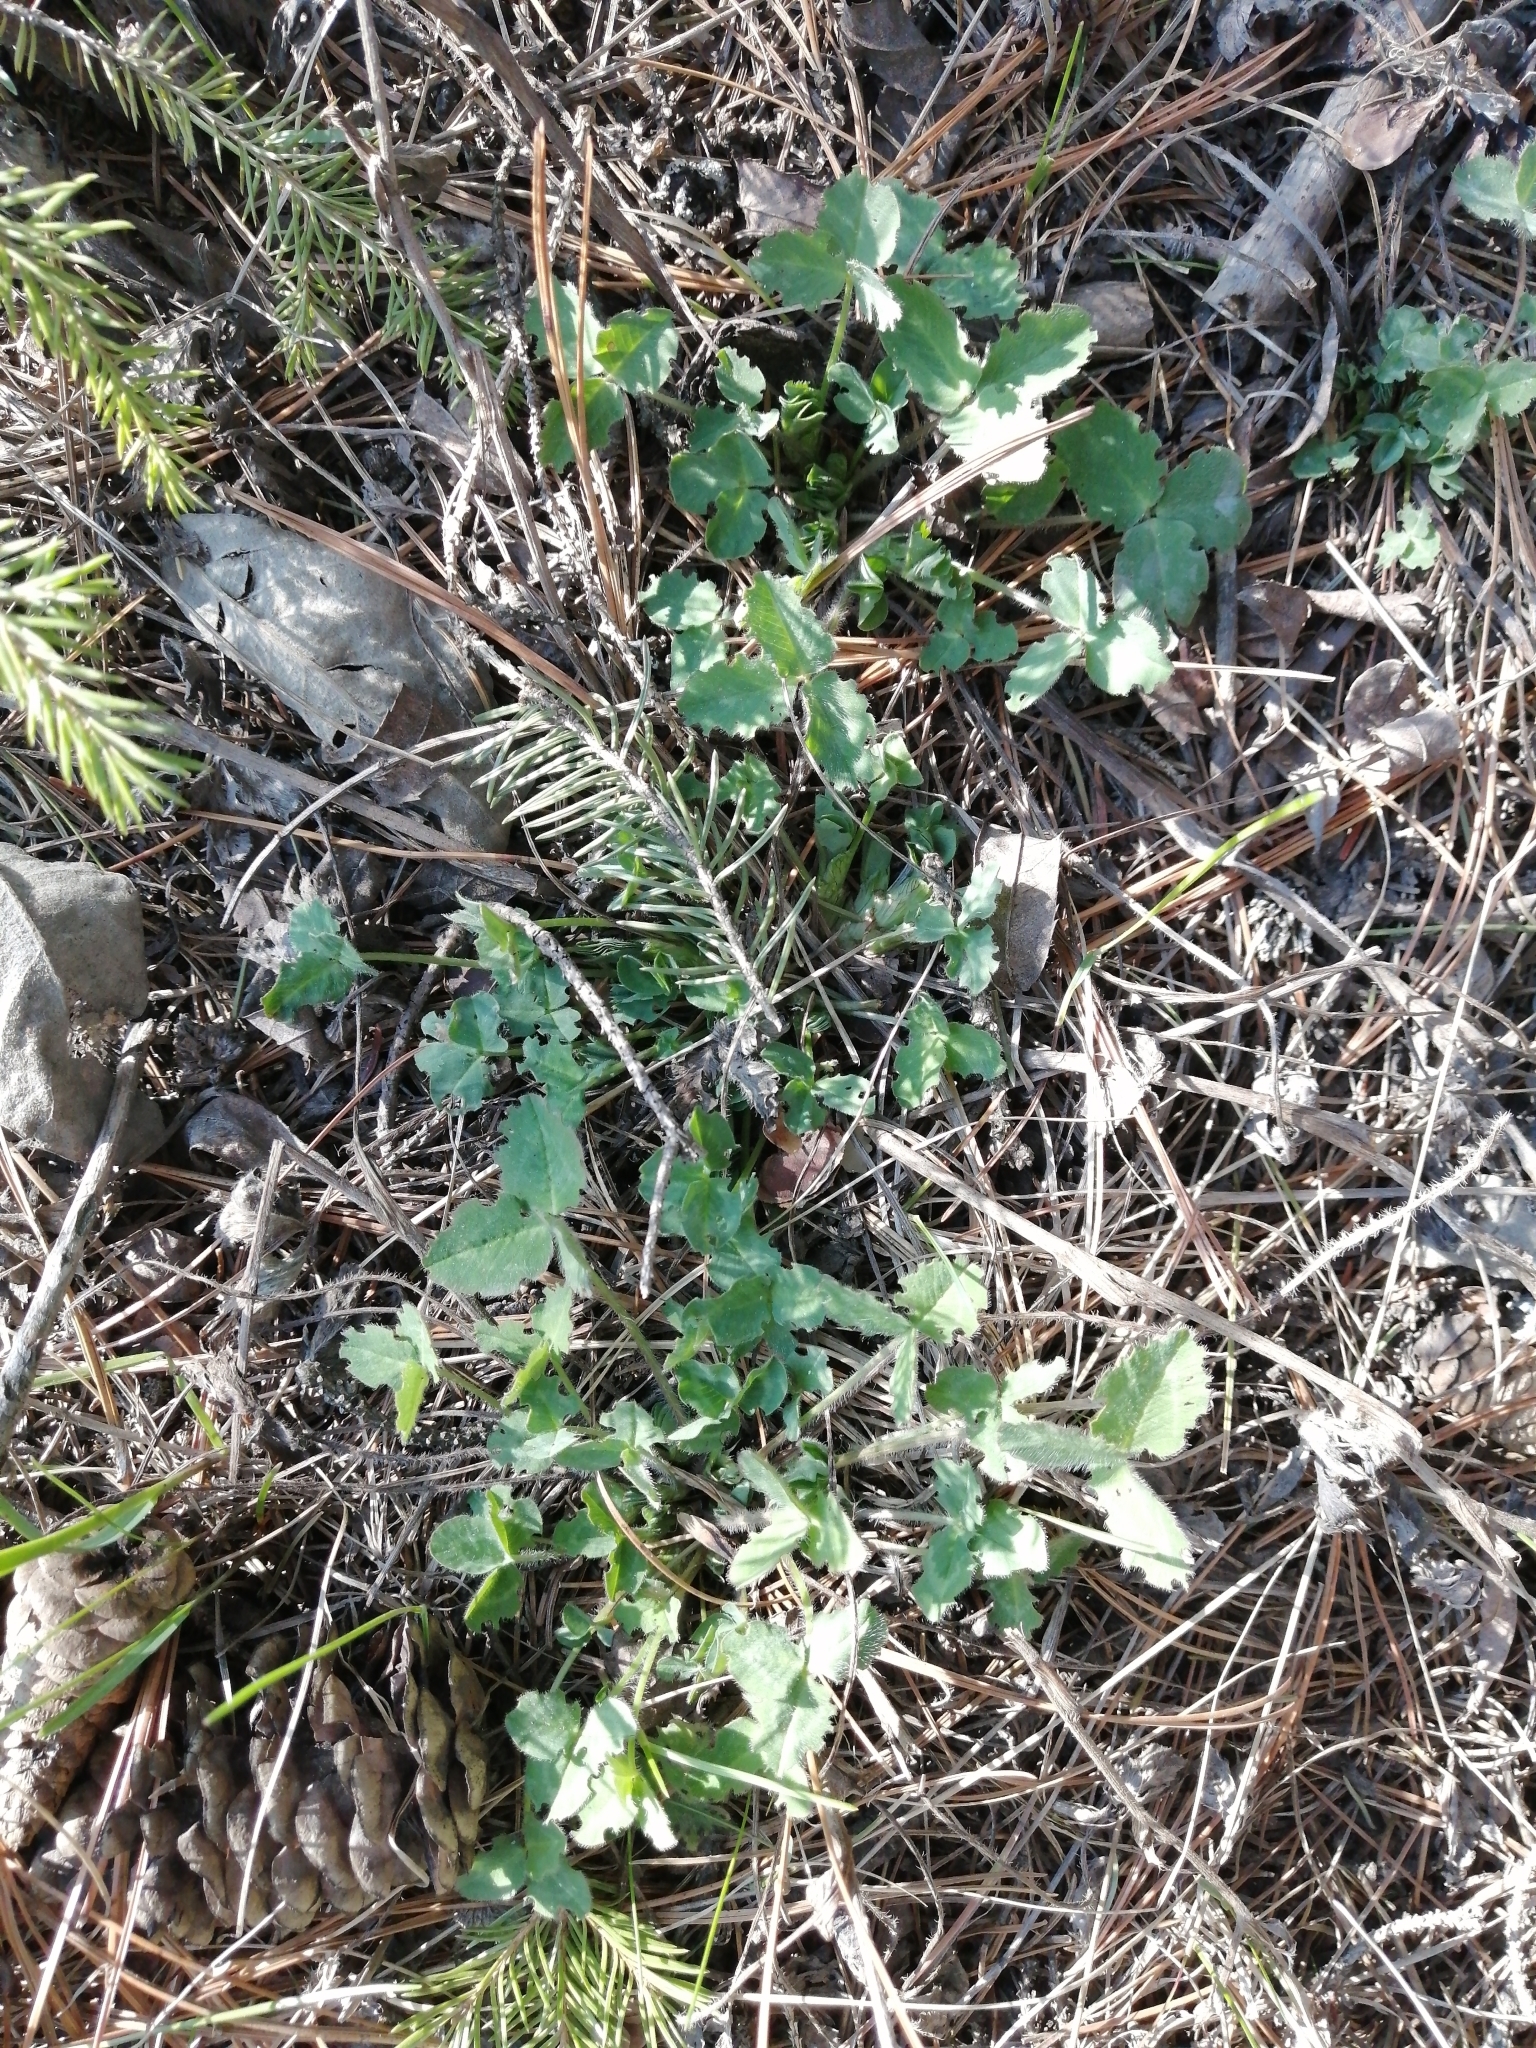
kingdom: Plantae
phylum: Tracheophyta
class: Magnoliopsida
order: Fabales
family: Fabaceae
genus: Trifolium
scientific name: Trifolium pratense
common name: Red clover
